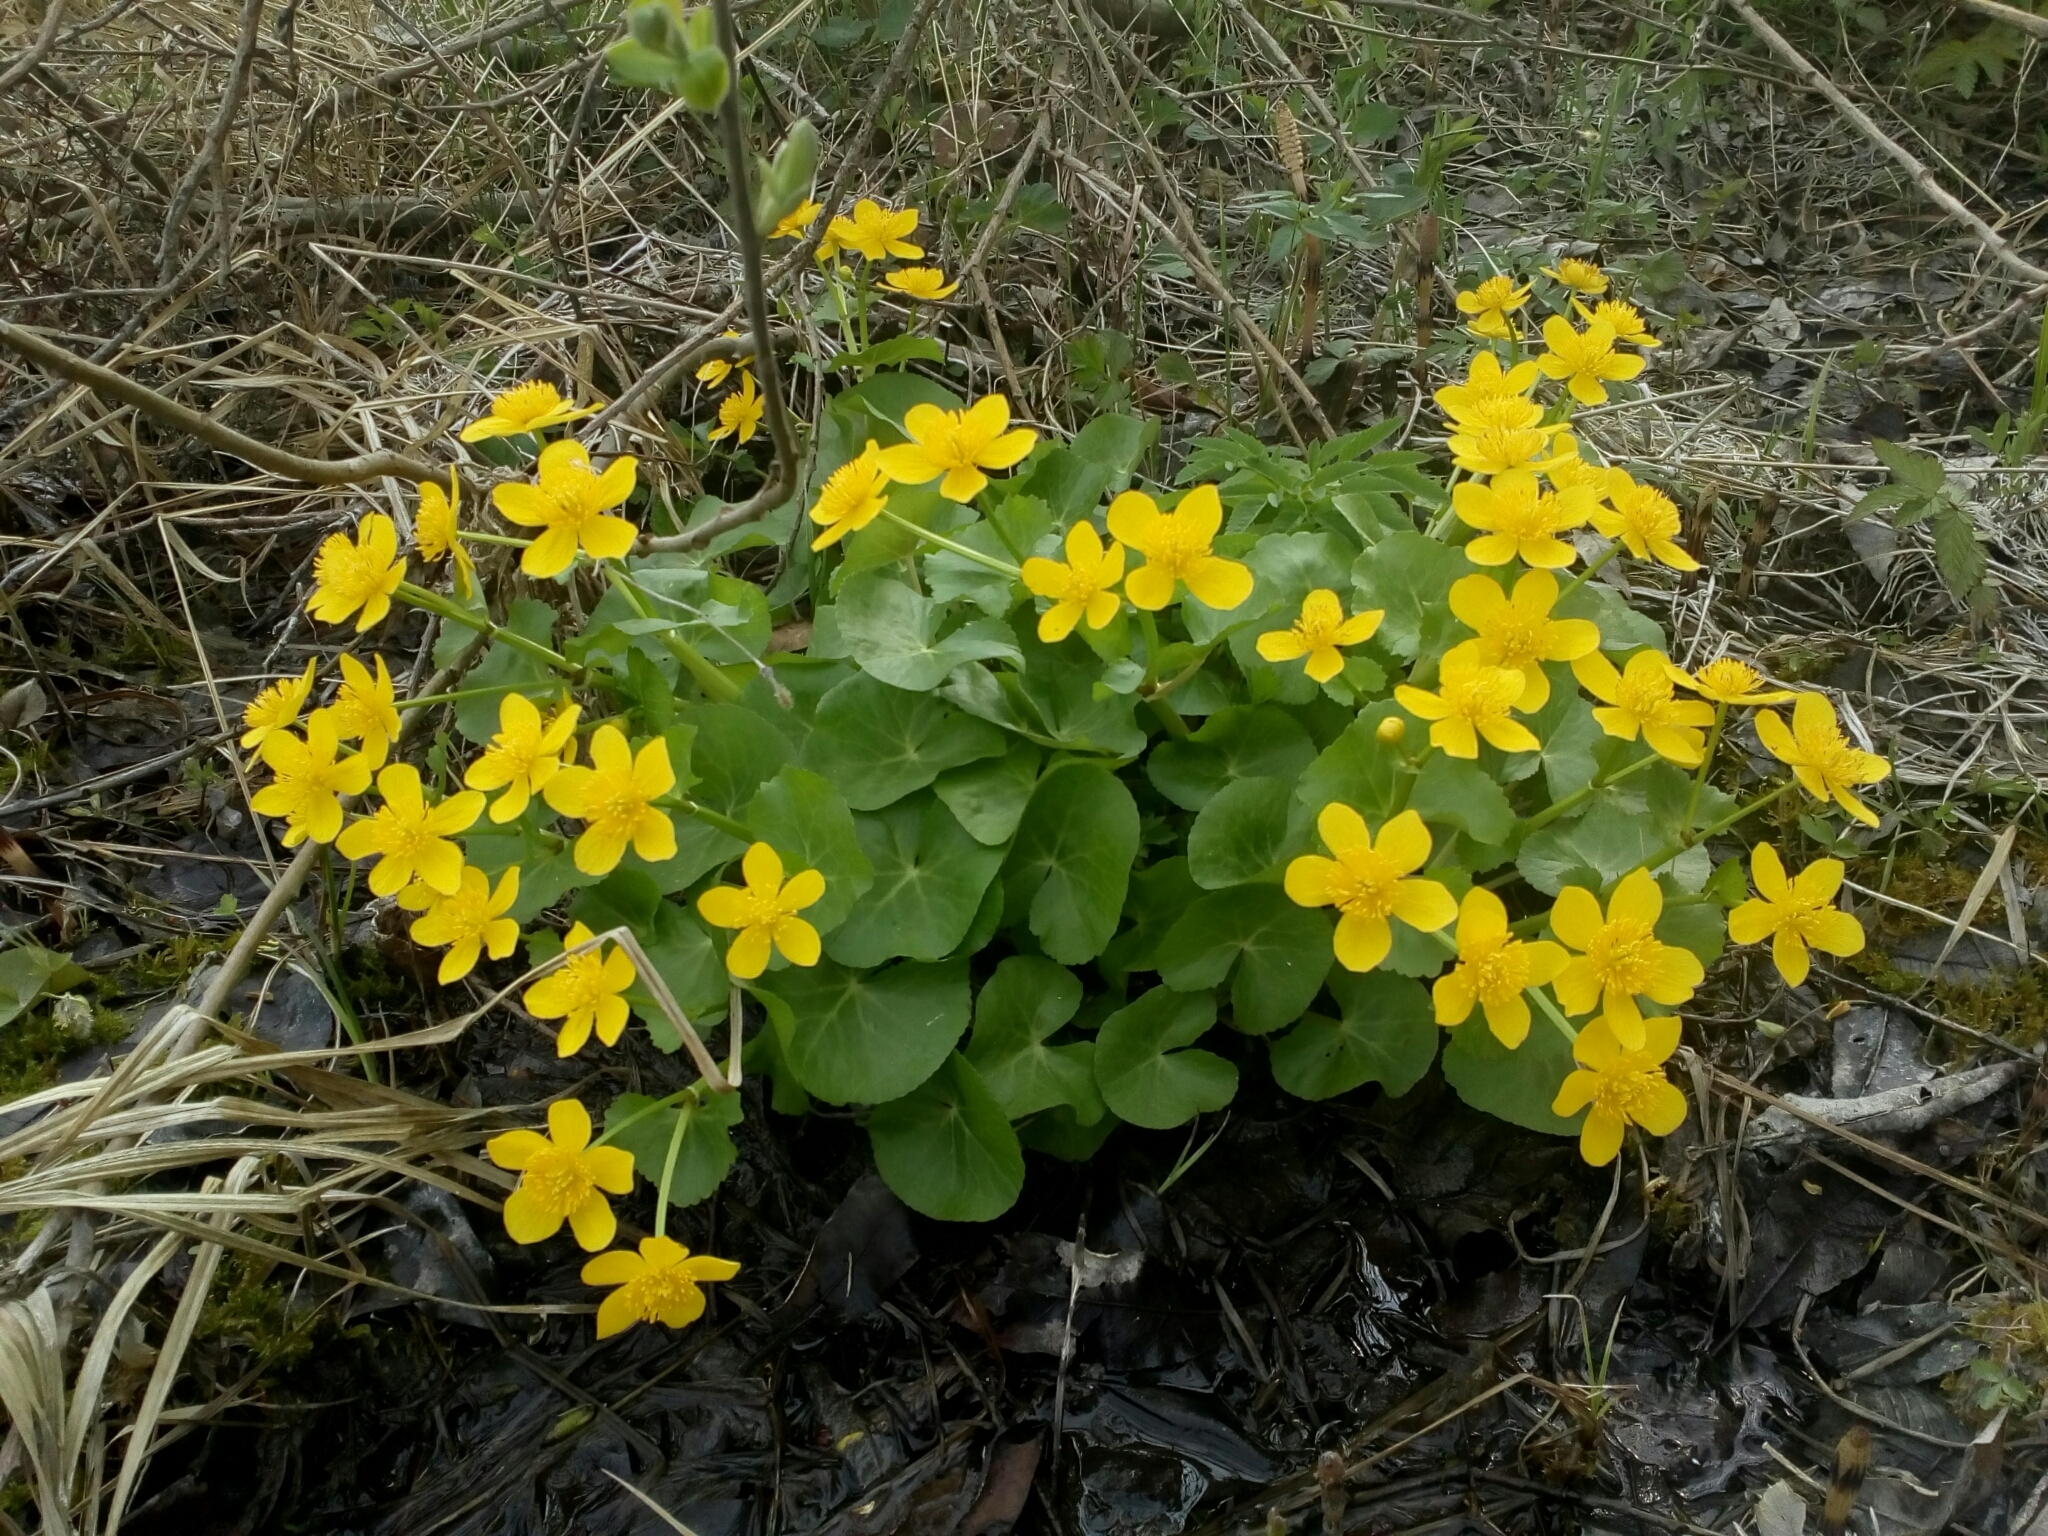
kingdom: Plantae
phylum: Tracheophyta
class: Magnoliopsida
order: Ranunculales
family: Ranunculaceae
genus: Caltha
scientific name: Caltha palustris
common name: Marsh marigold
